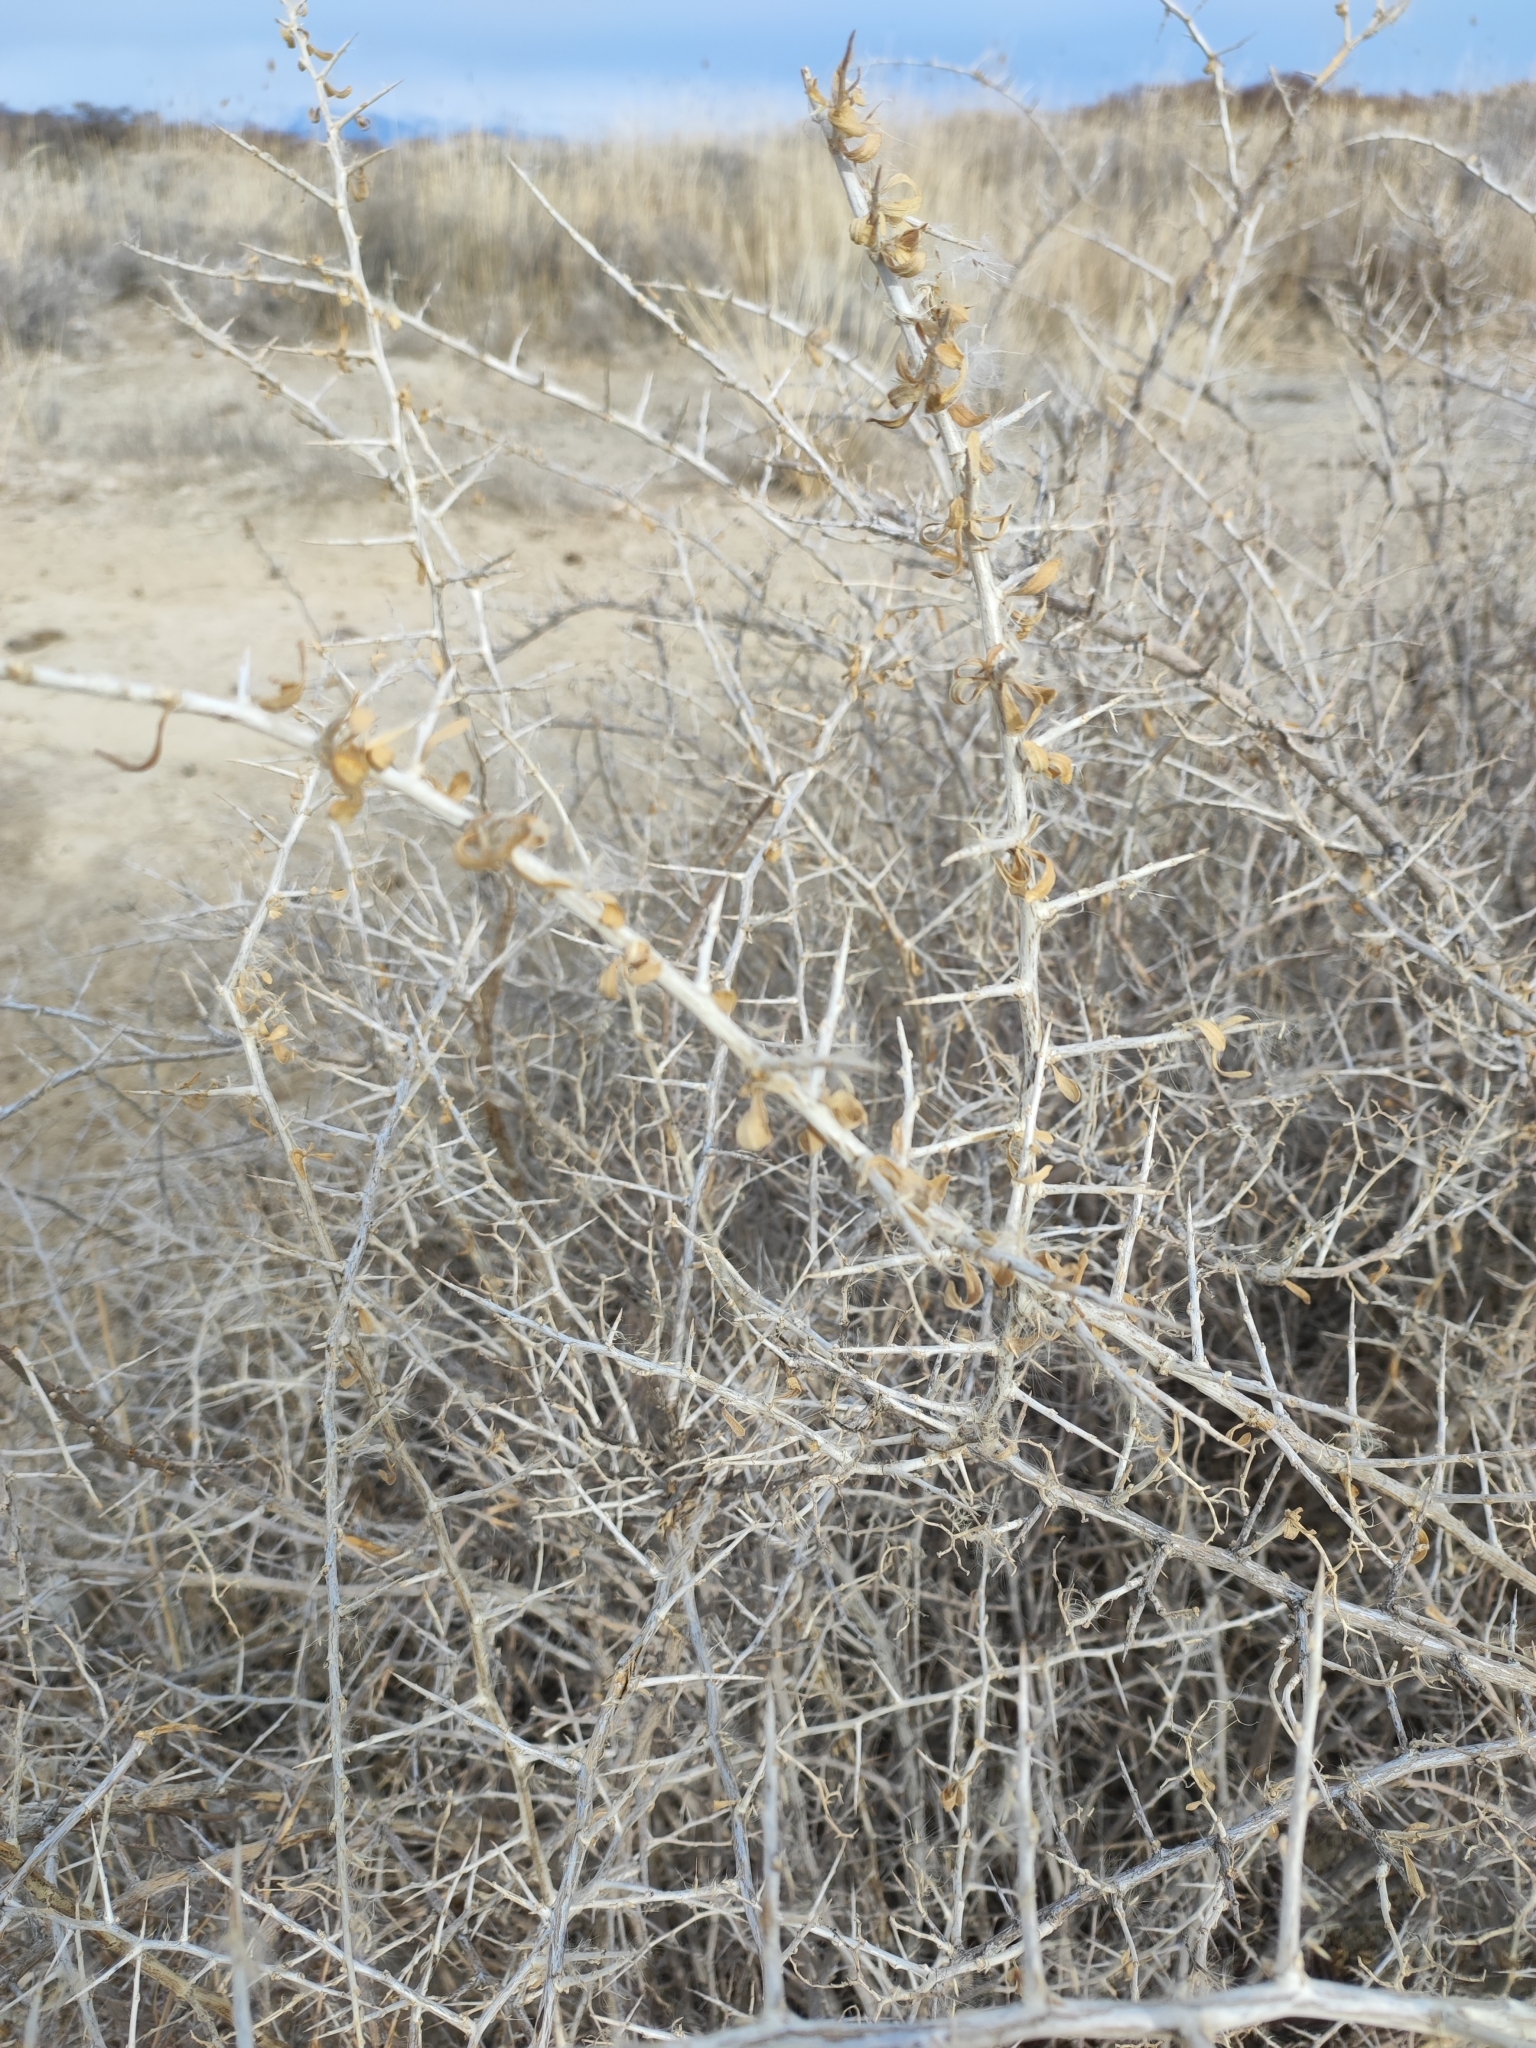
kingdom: Plantae
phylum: Tracheophyta
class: Magnoliopsida
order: Fabales
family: Fabaceae
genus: Caragana
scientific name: Caragana halodendron
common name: Siberian salt-tree
